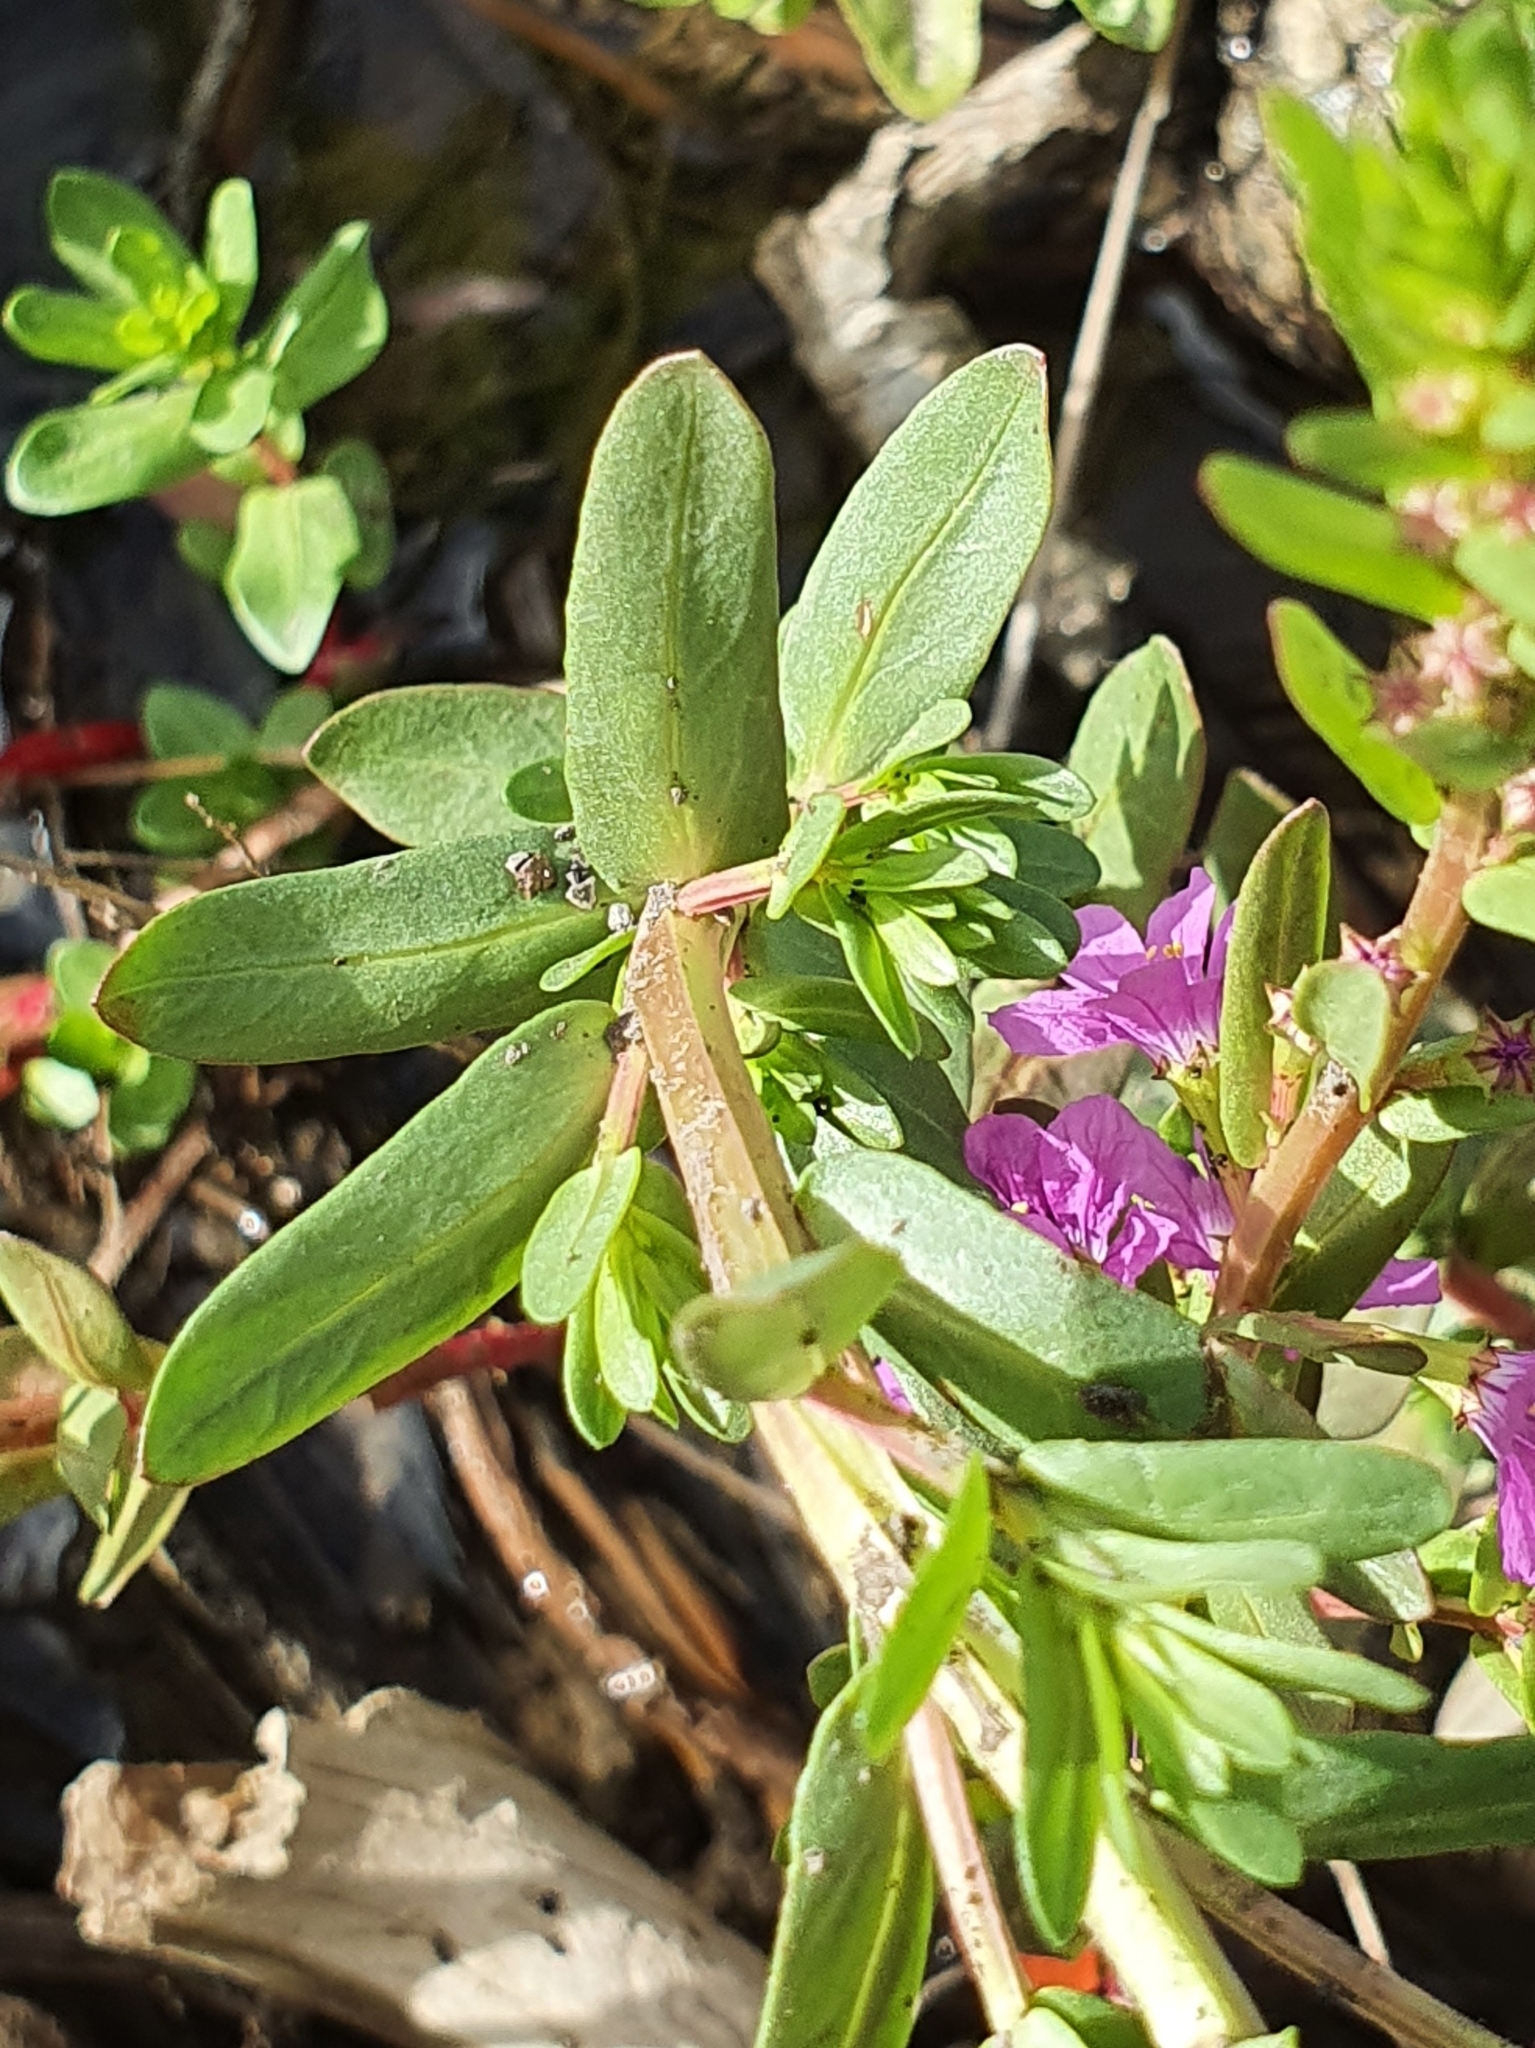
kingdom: Plantae
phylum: Tracheophyta
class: Magnoliopsida
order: Myrtales
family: Lythraceae
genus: Lythrum
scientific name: Lythrum junceum
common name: False grass-poly
